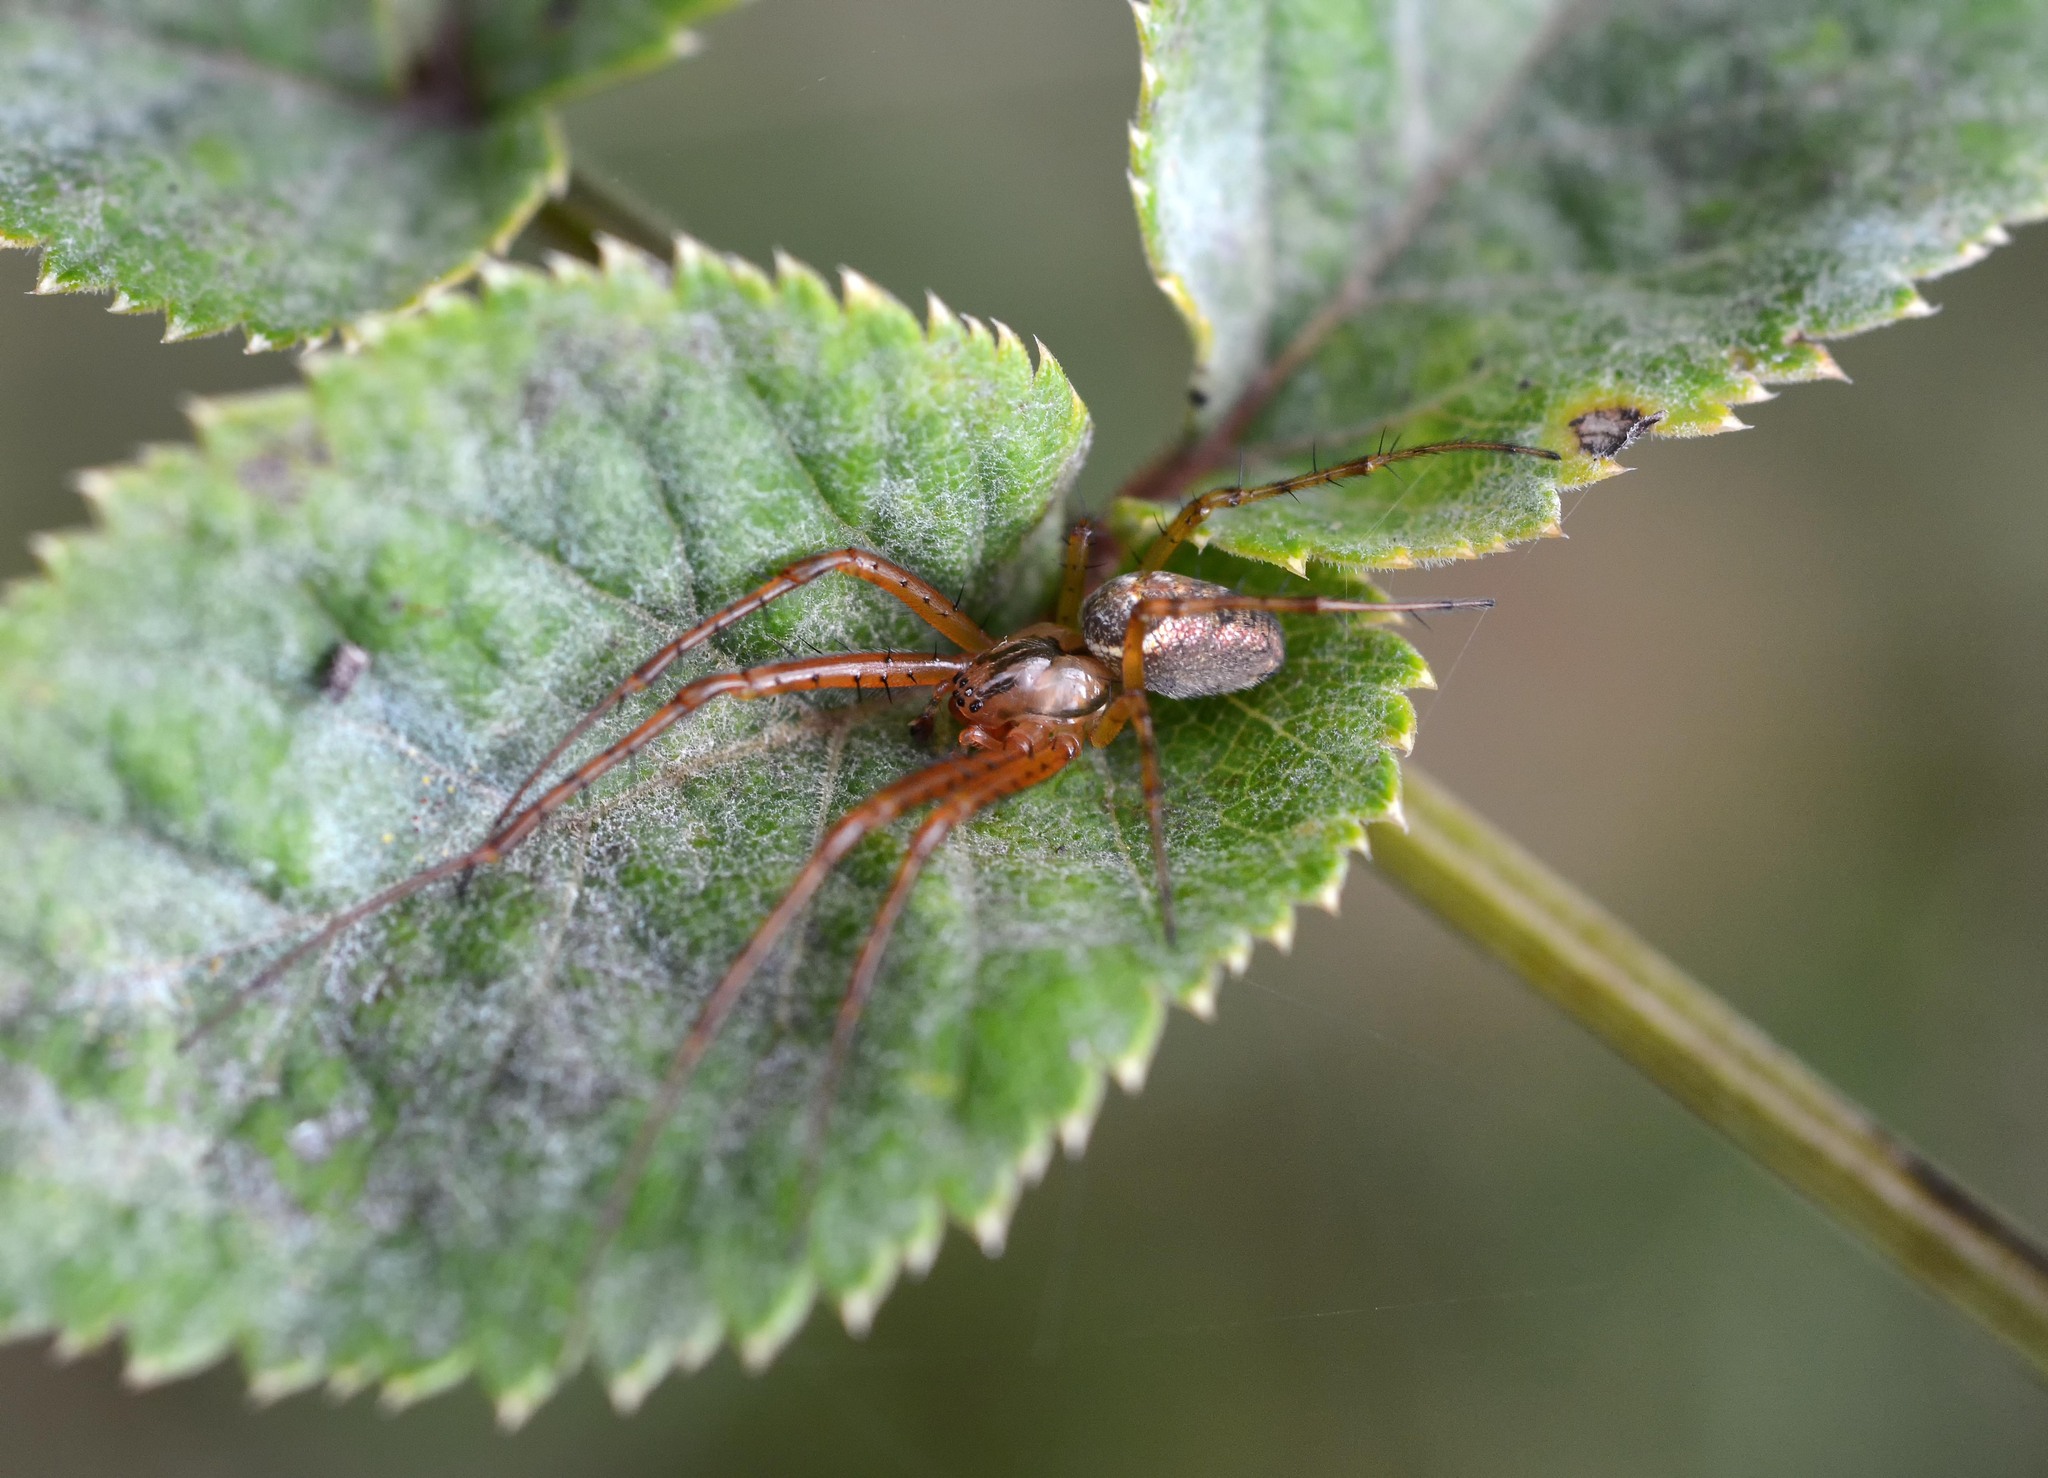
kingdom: Animalia
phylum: Arthropoda
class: Arachnida
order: Araneae
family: Tetragnathidae
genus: Metellina
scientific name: Metellina
